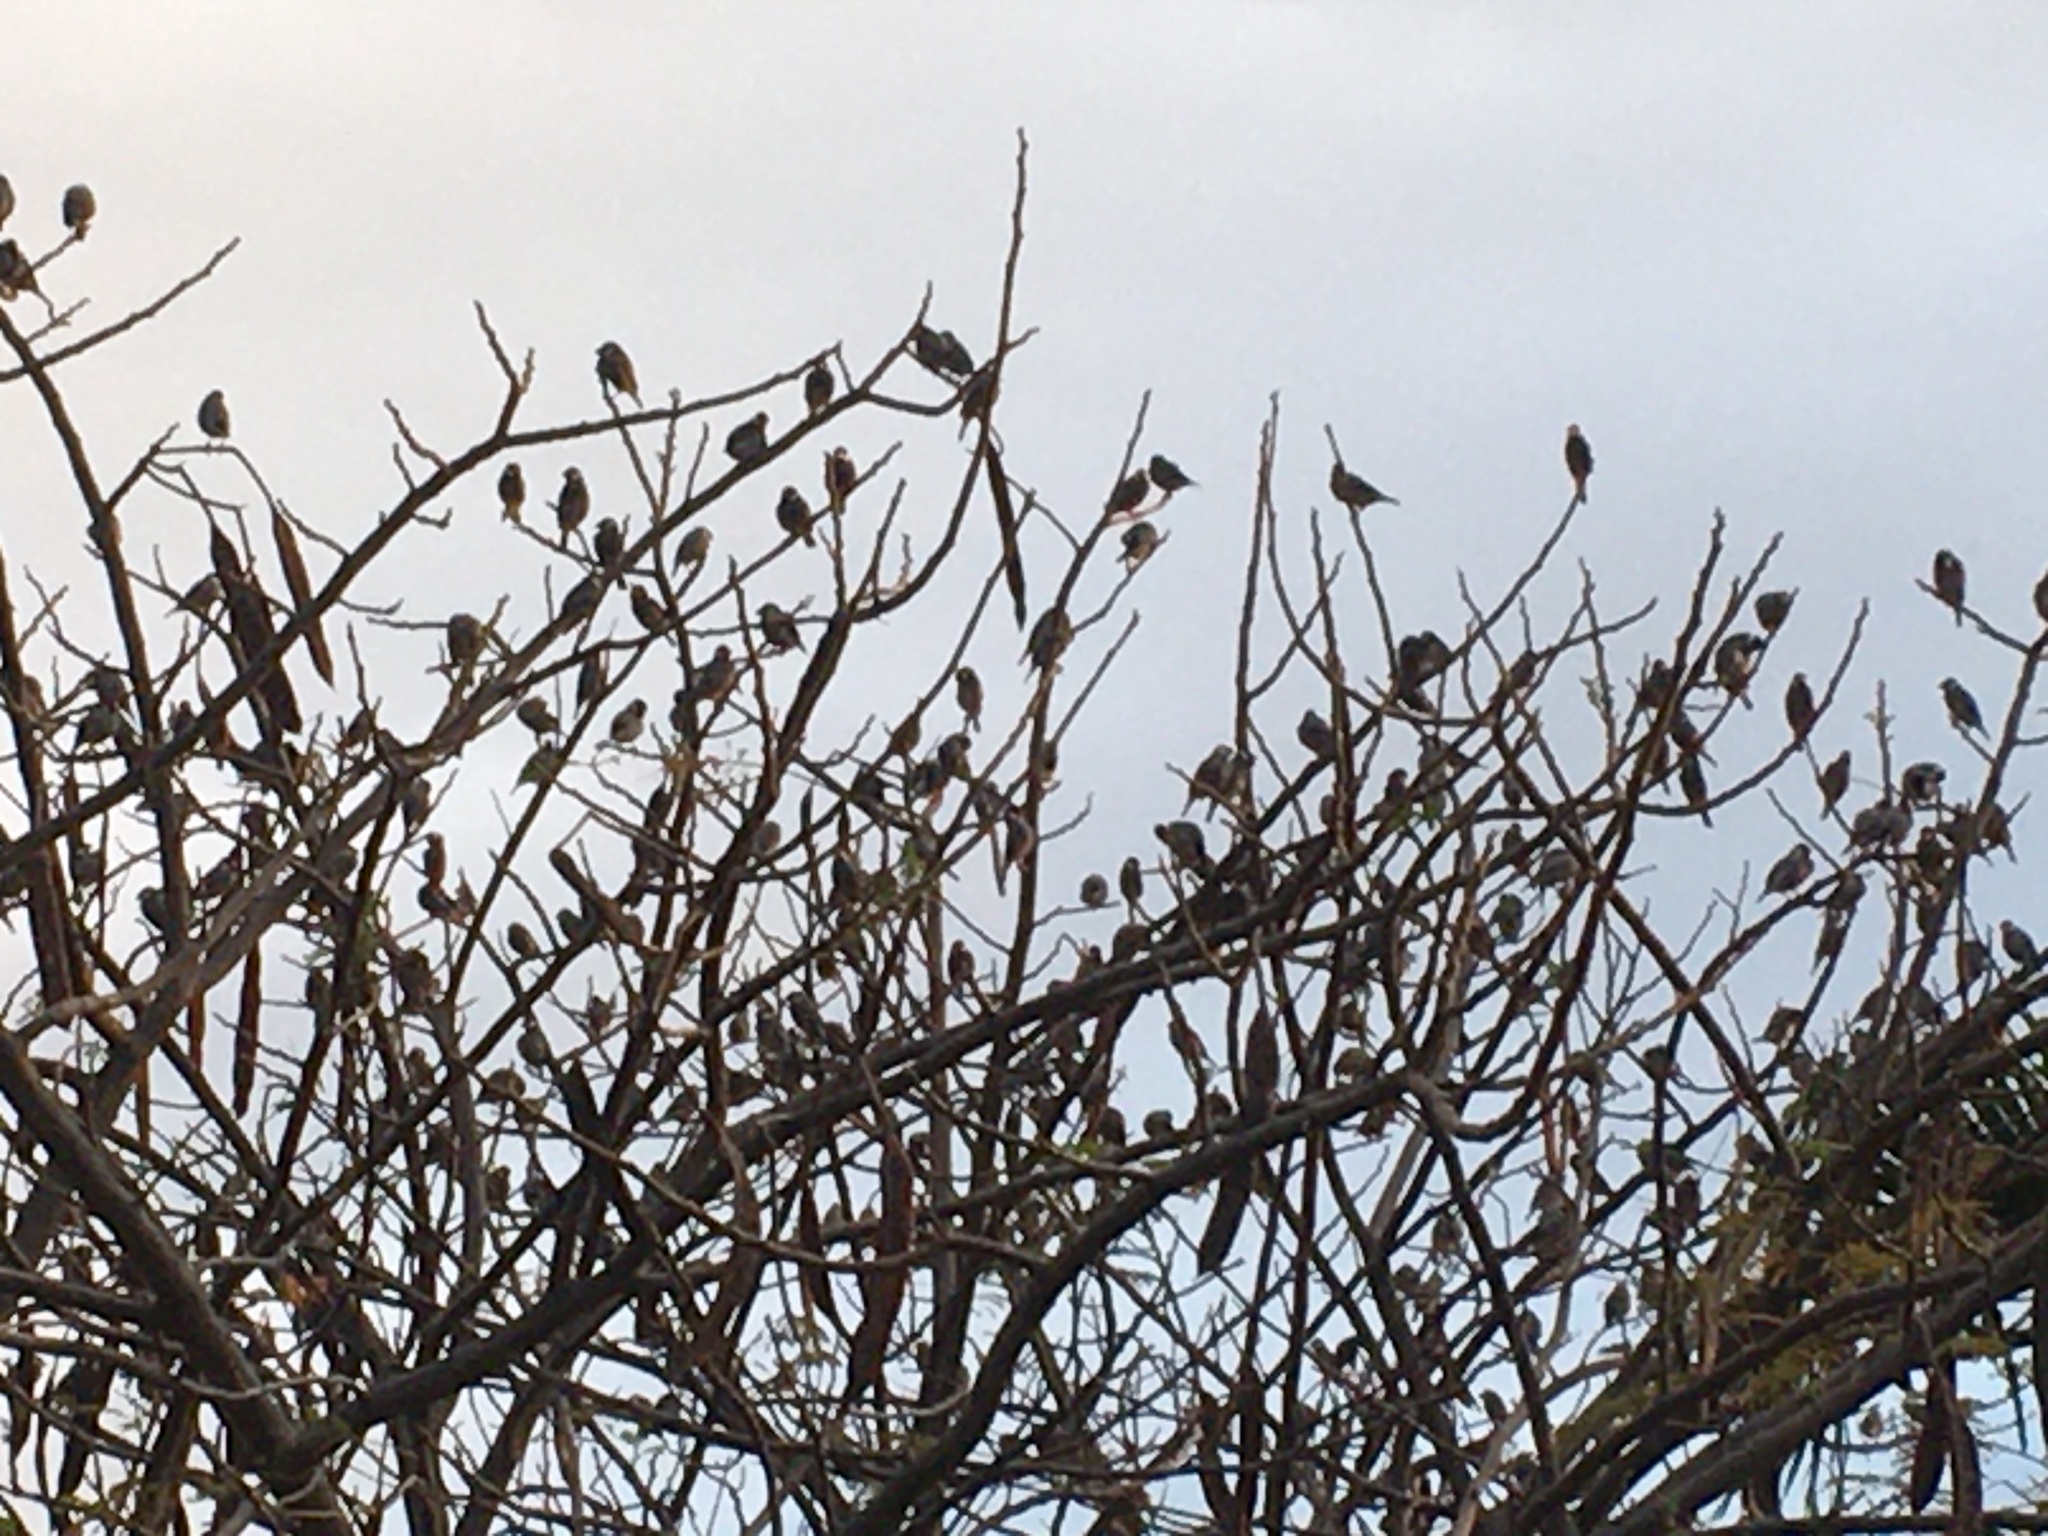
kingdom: Animalia
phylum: Chordata
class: Aves
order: Passeriformes
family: Estrildidae
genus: Lonchura
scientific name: Lonchura oryzivora
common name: Java sparrow
